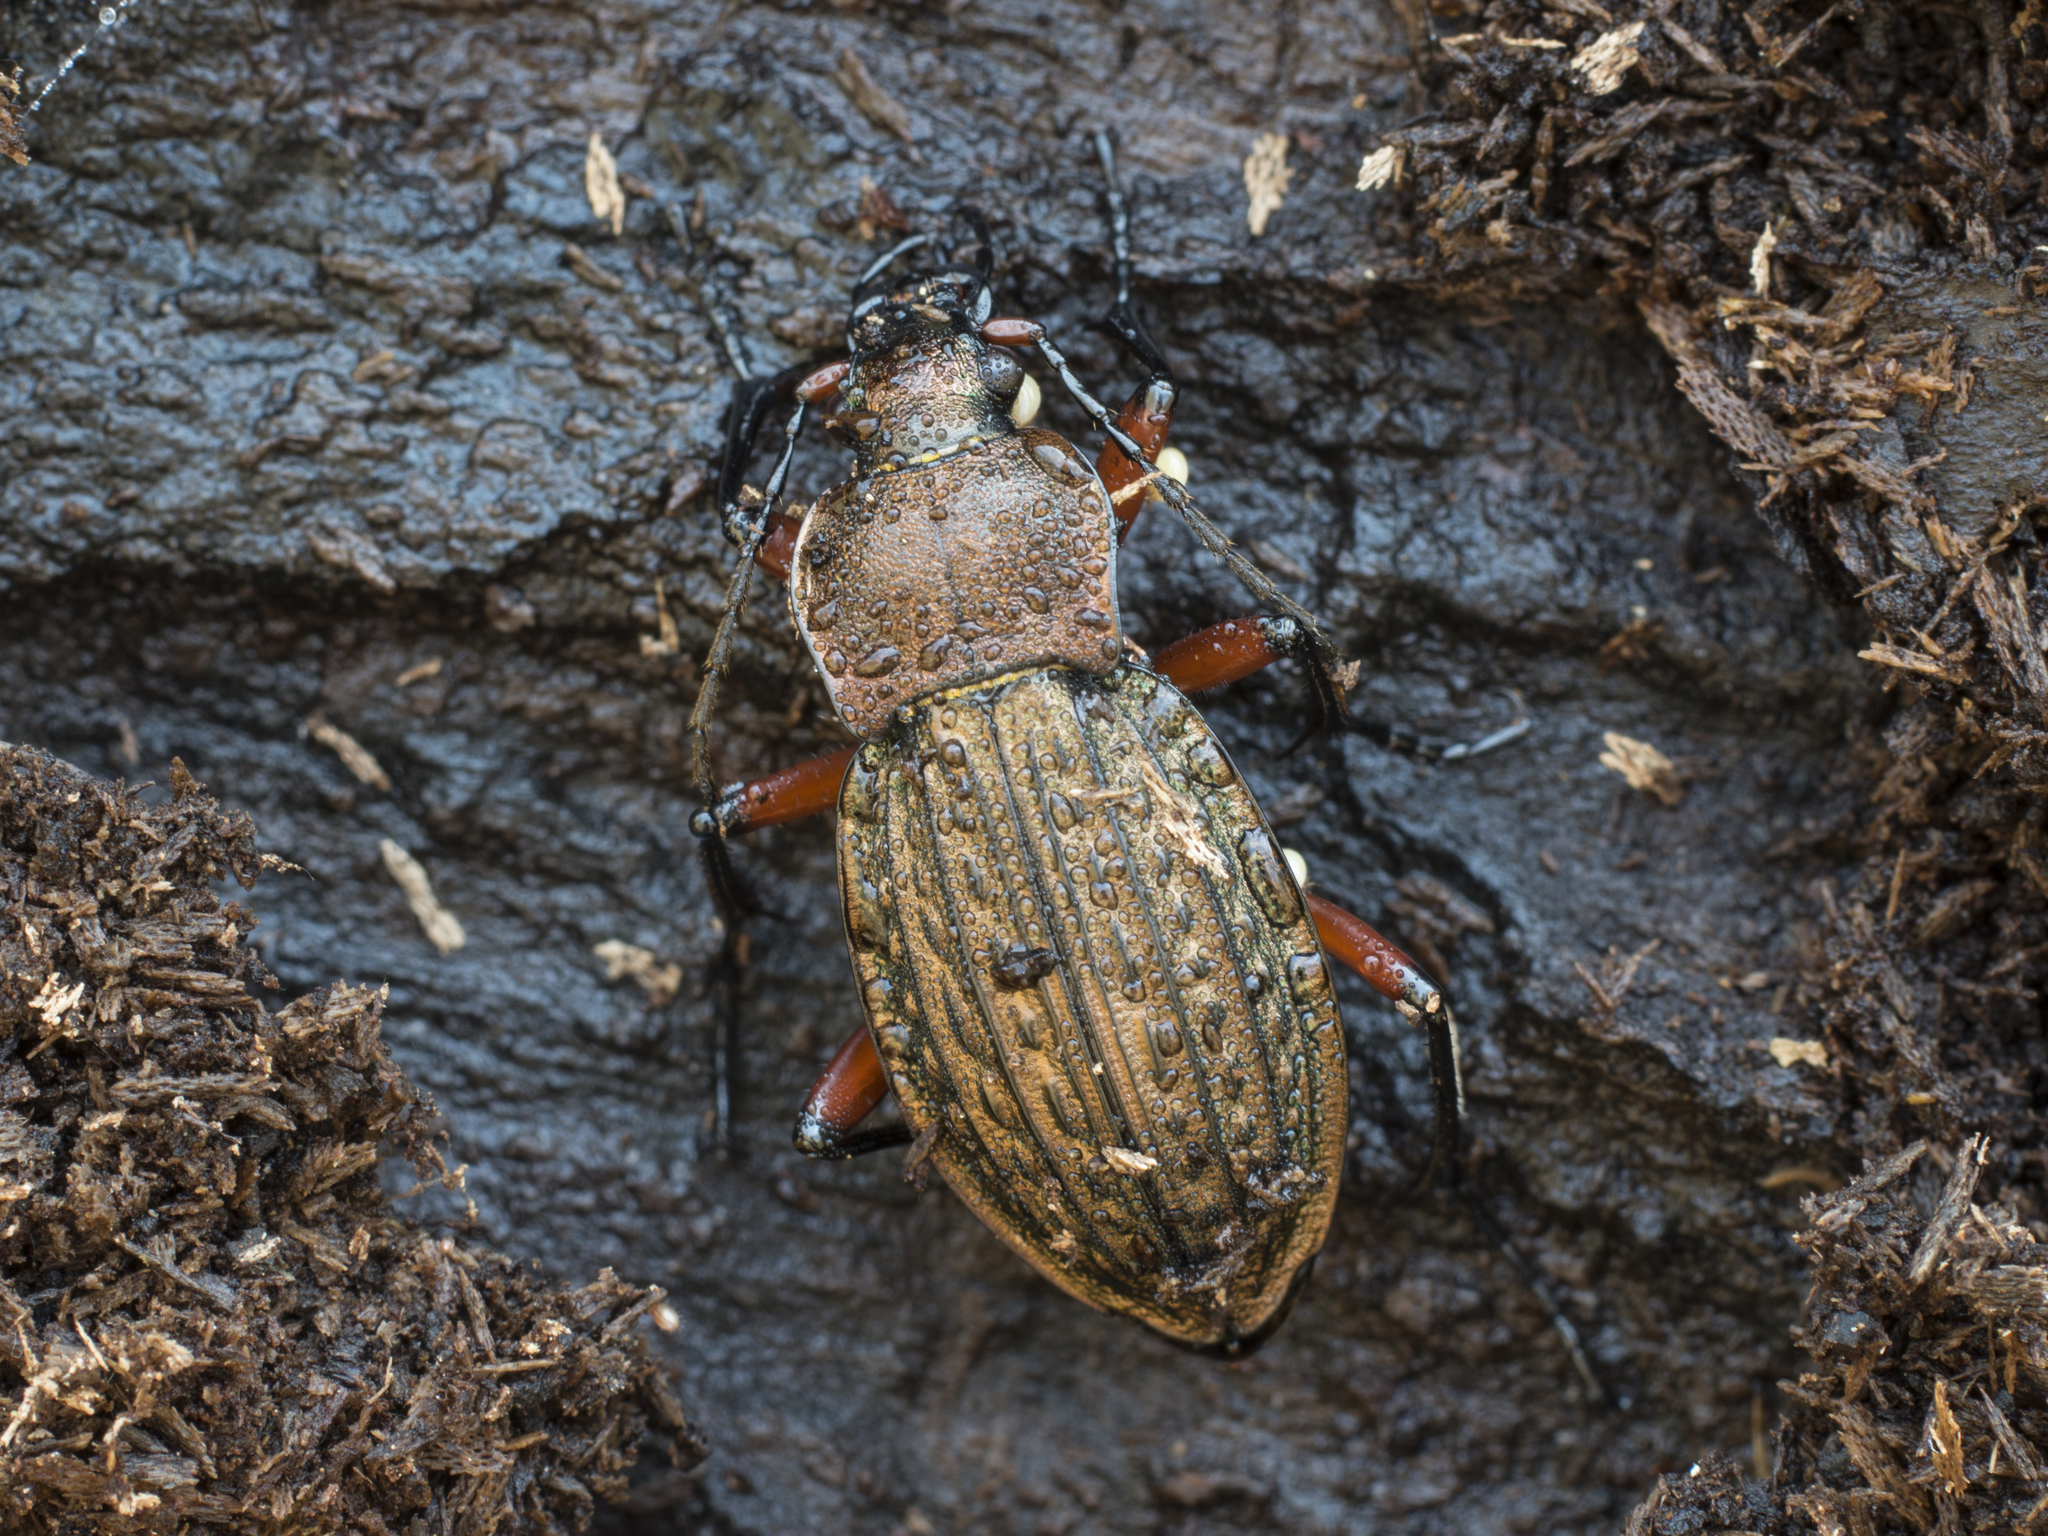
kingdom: Animalia
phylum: Arthropoda
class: Insecta
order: Coleoptera
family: Carabidae
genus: Carabus
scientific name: Carabus cancellatus
